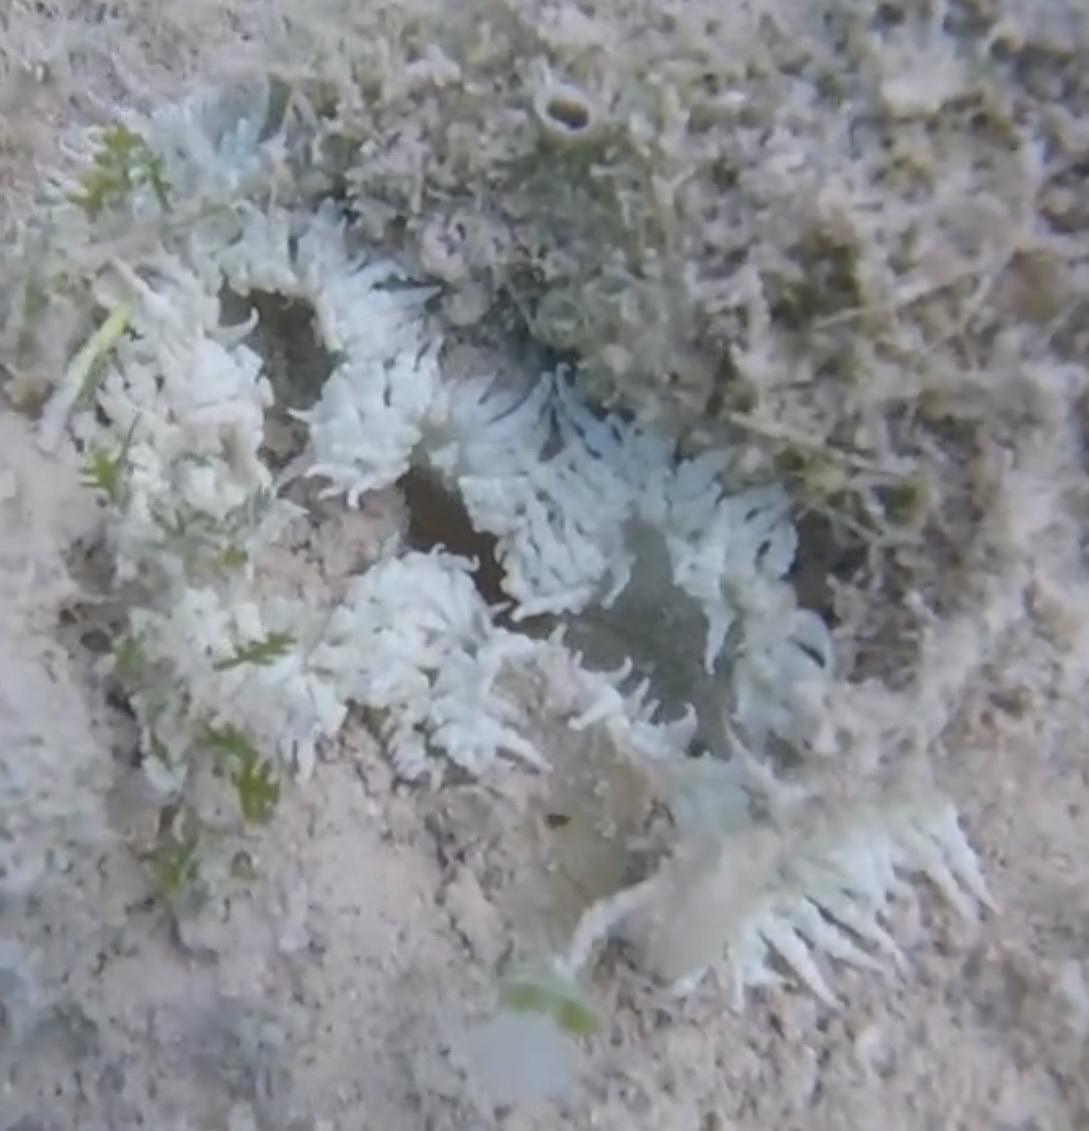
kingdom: Animalia
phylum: Cnidaria
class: Anthozoa
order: Actiniaria
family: Phymanthidae
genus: Phymanthus
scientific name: Phymanthus crucifer
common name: Red beaded anemone
